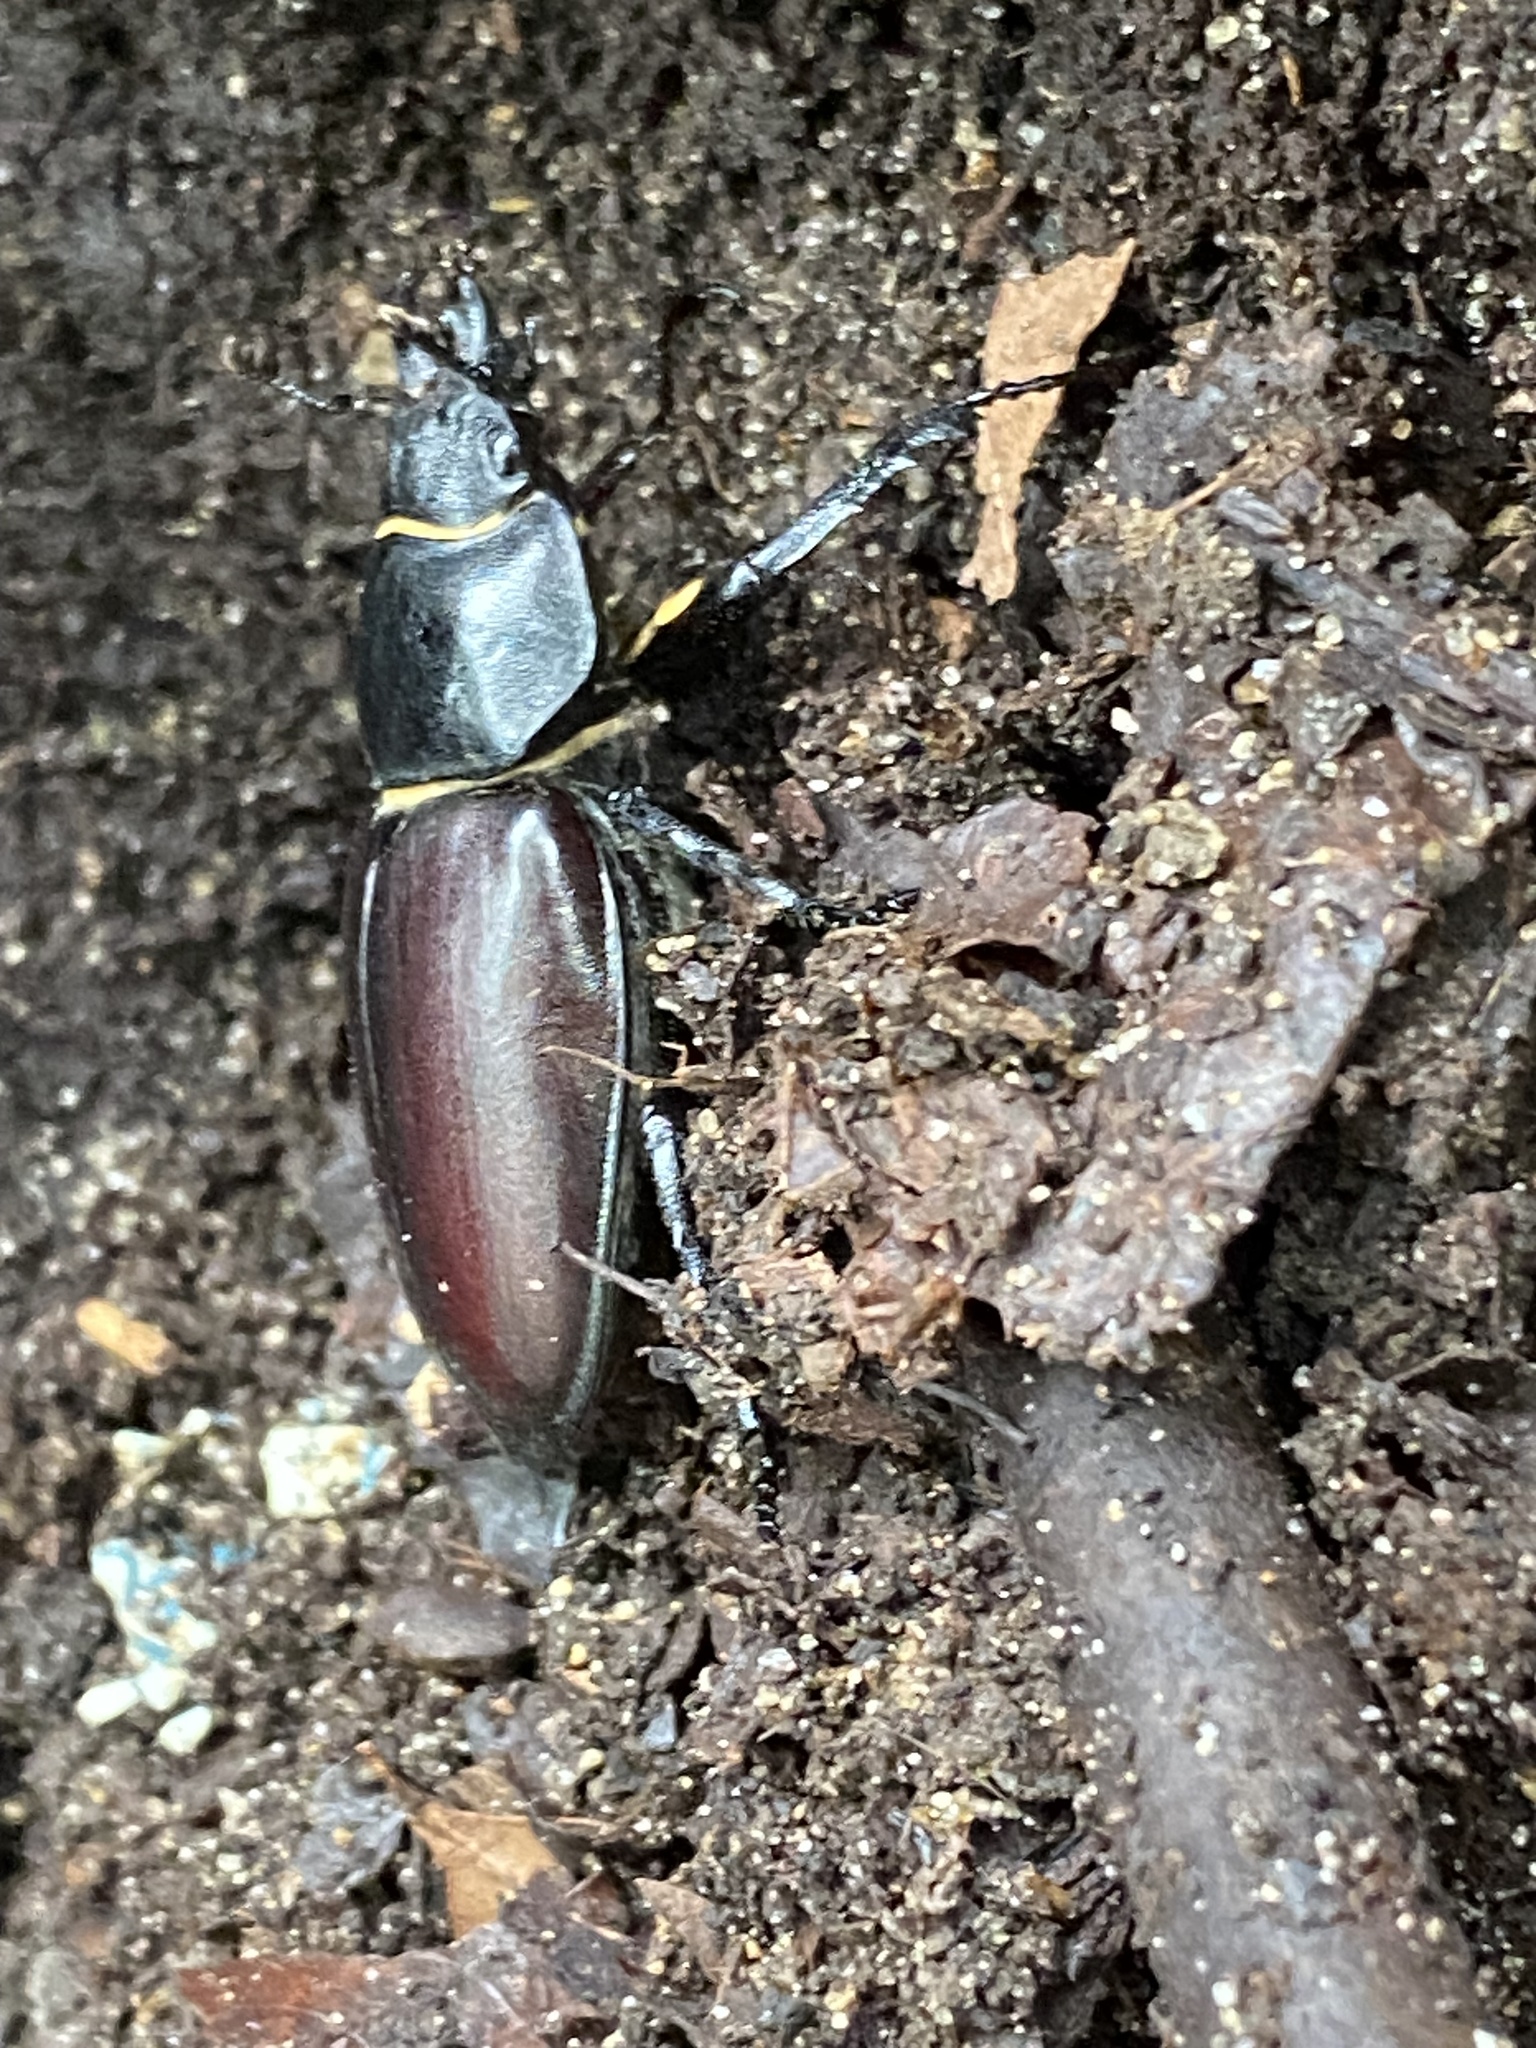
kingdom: Animalia
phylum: Arthropoda
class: Insecta
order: Coleoptera
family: Lucanidae
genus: Lucanus
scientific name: Lucanus cervus
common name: Stag beetle
